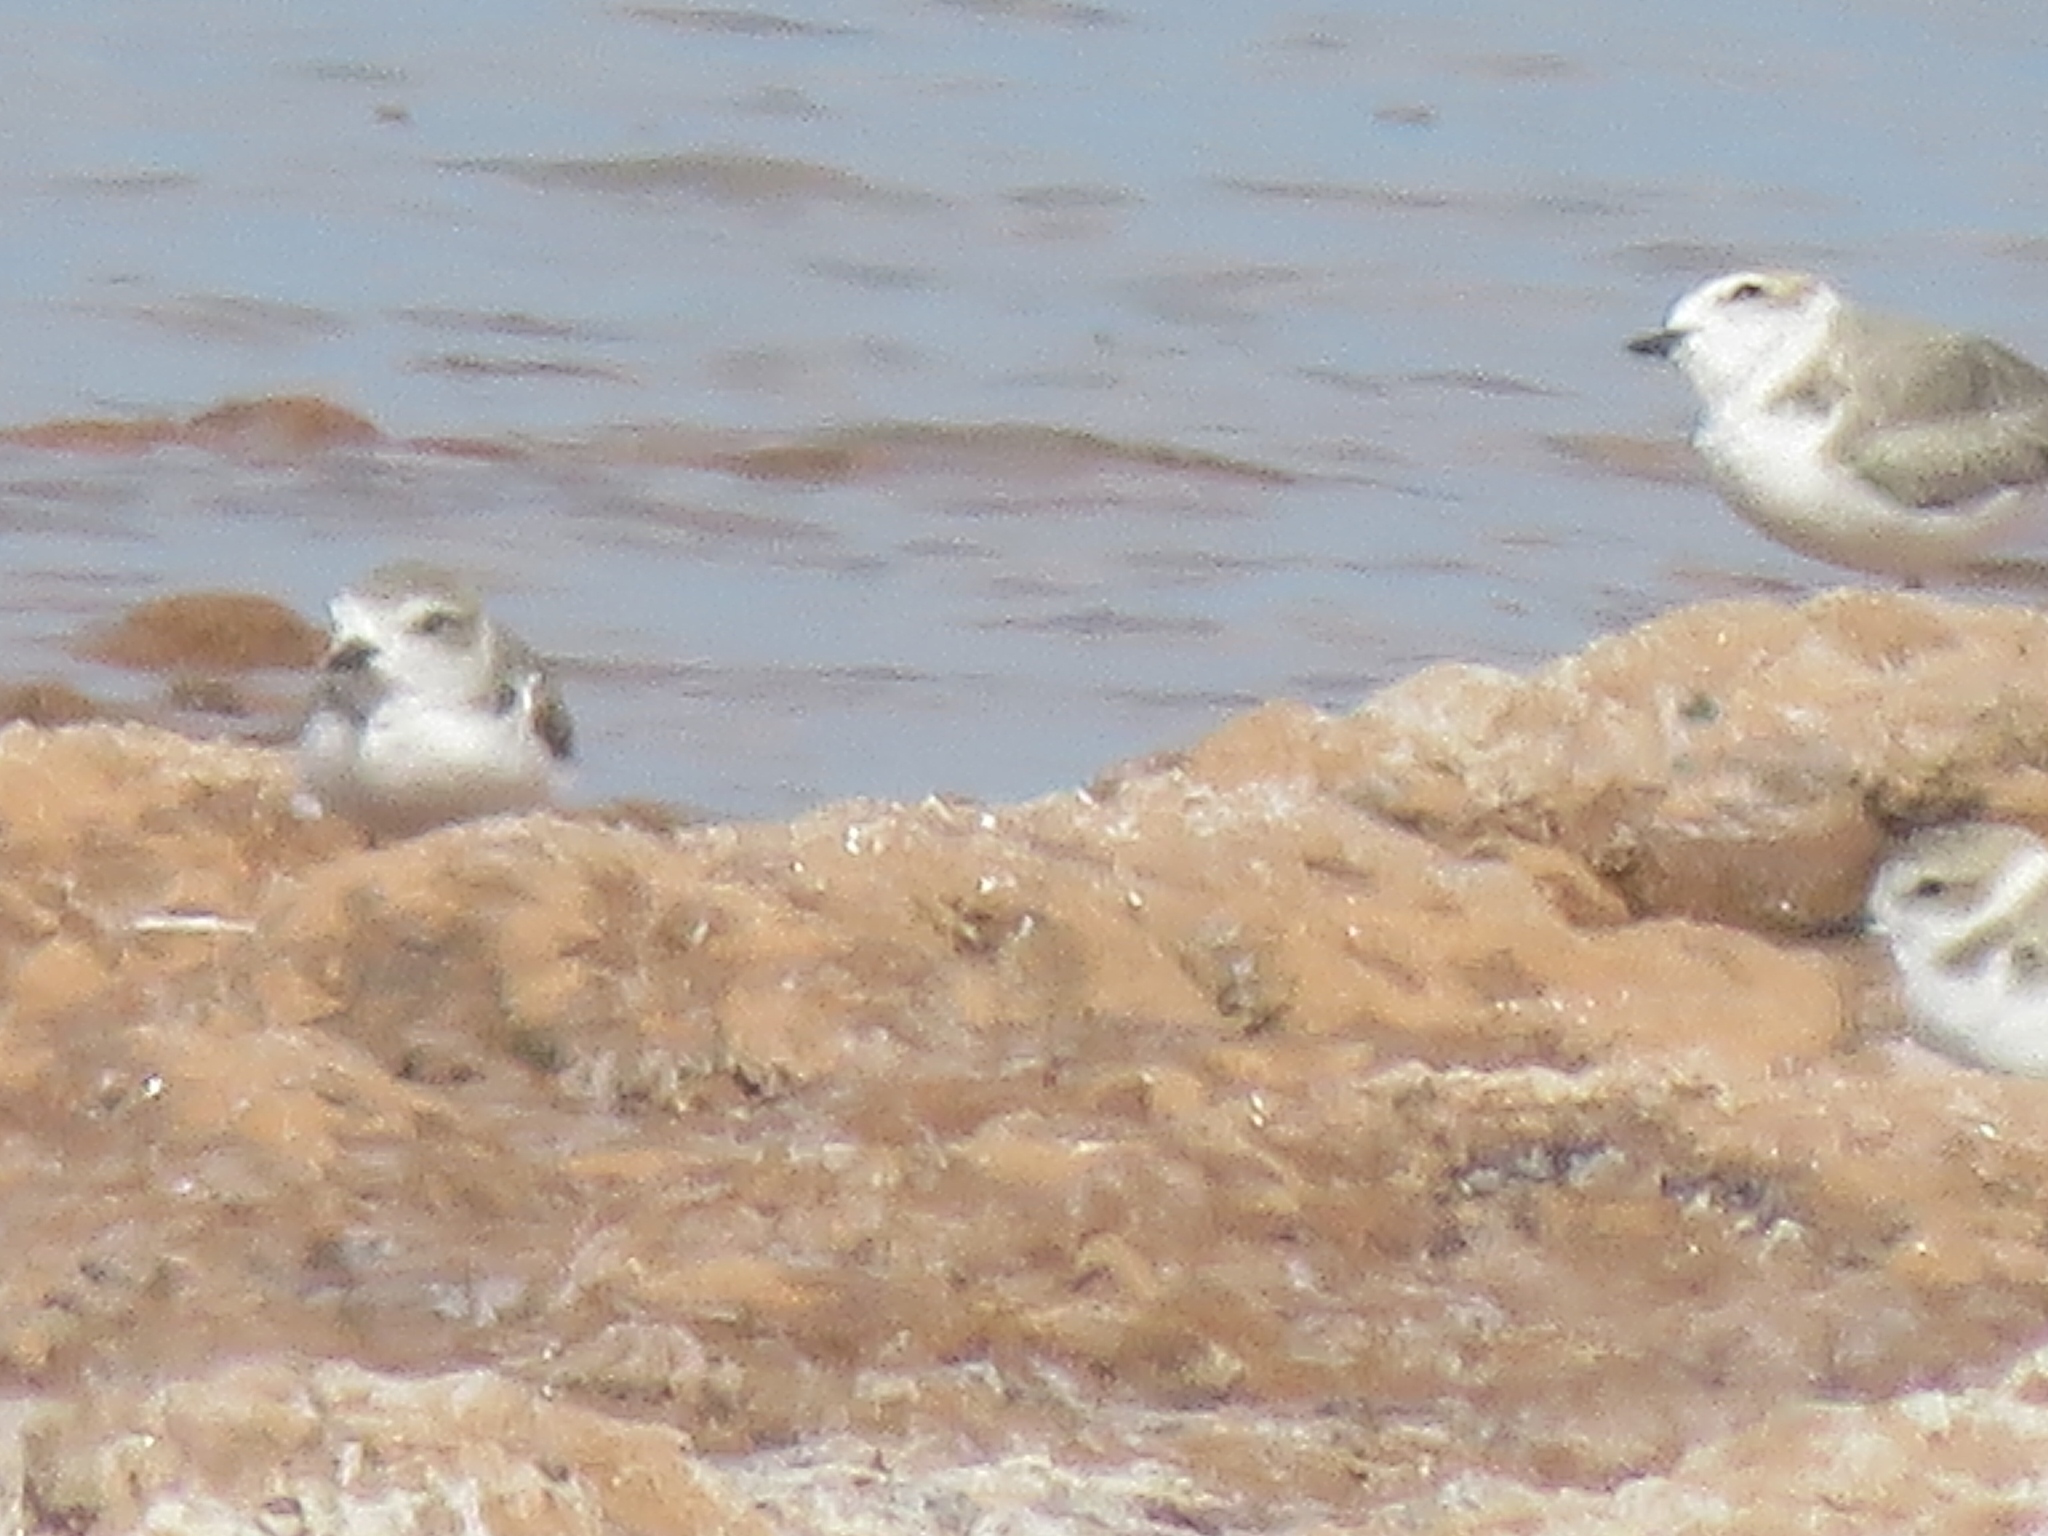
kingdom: Animalia
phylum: Chordata
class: Aves
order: Charadriiformes
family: Charadriidae
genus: Anarhynchus
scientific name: Anarhynchus
